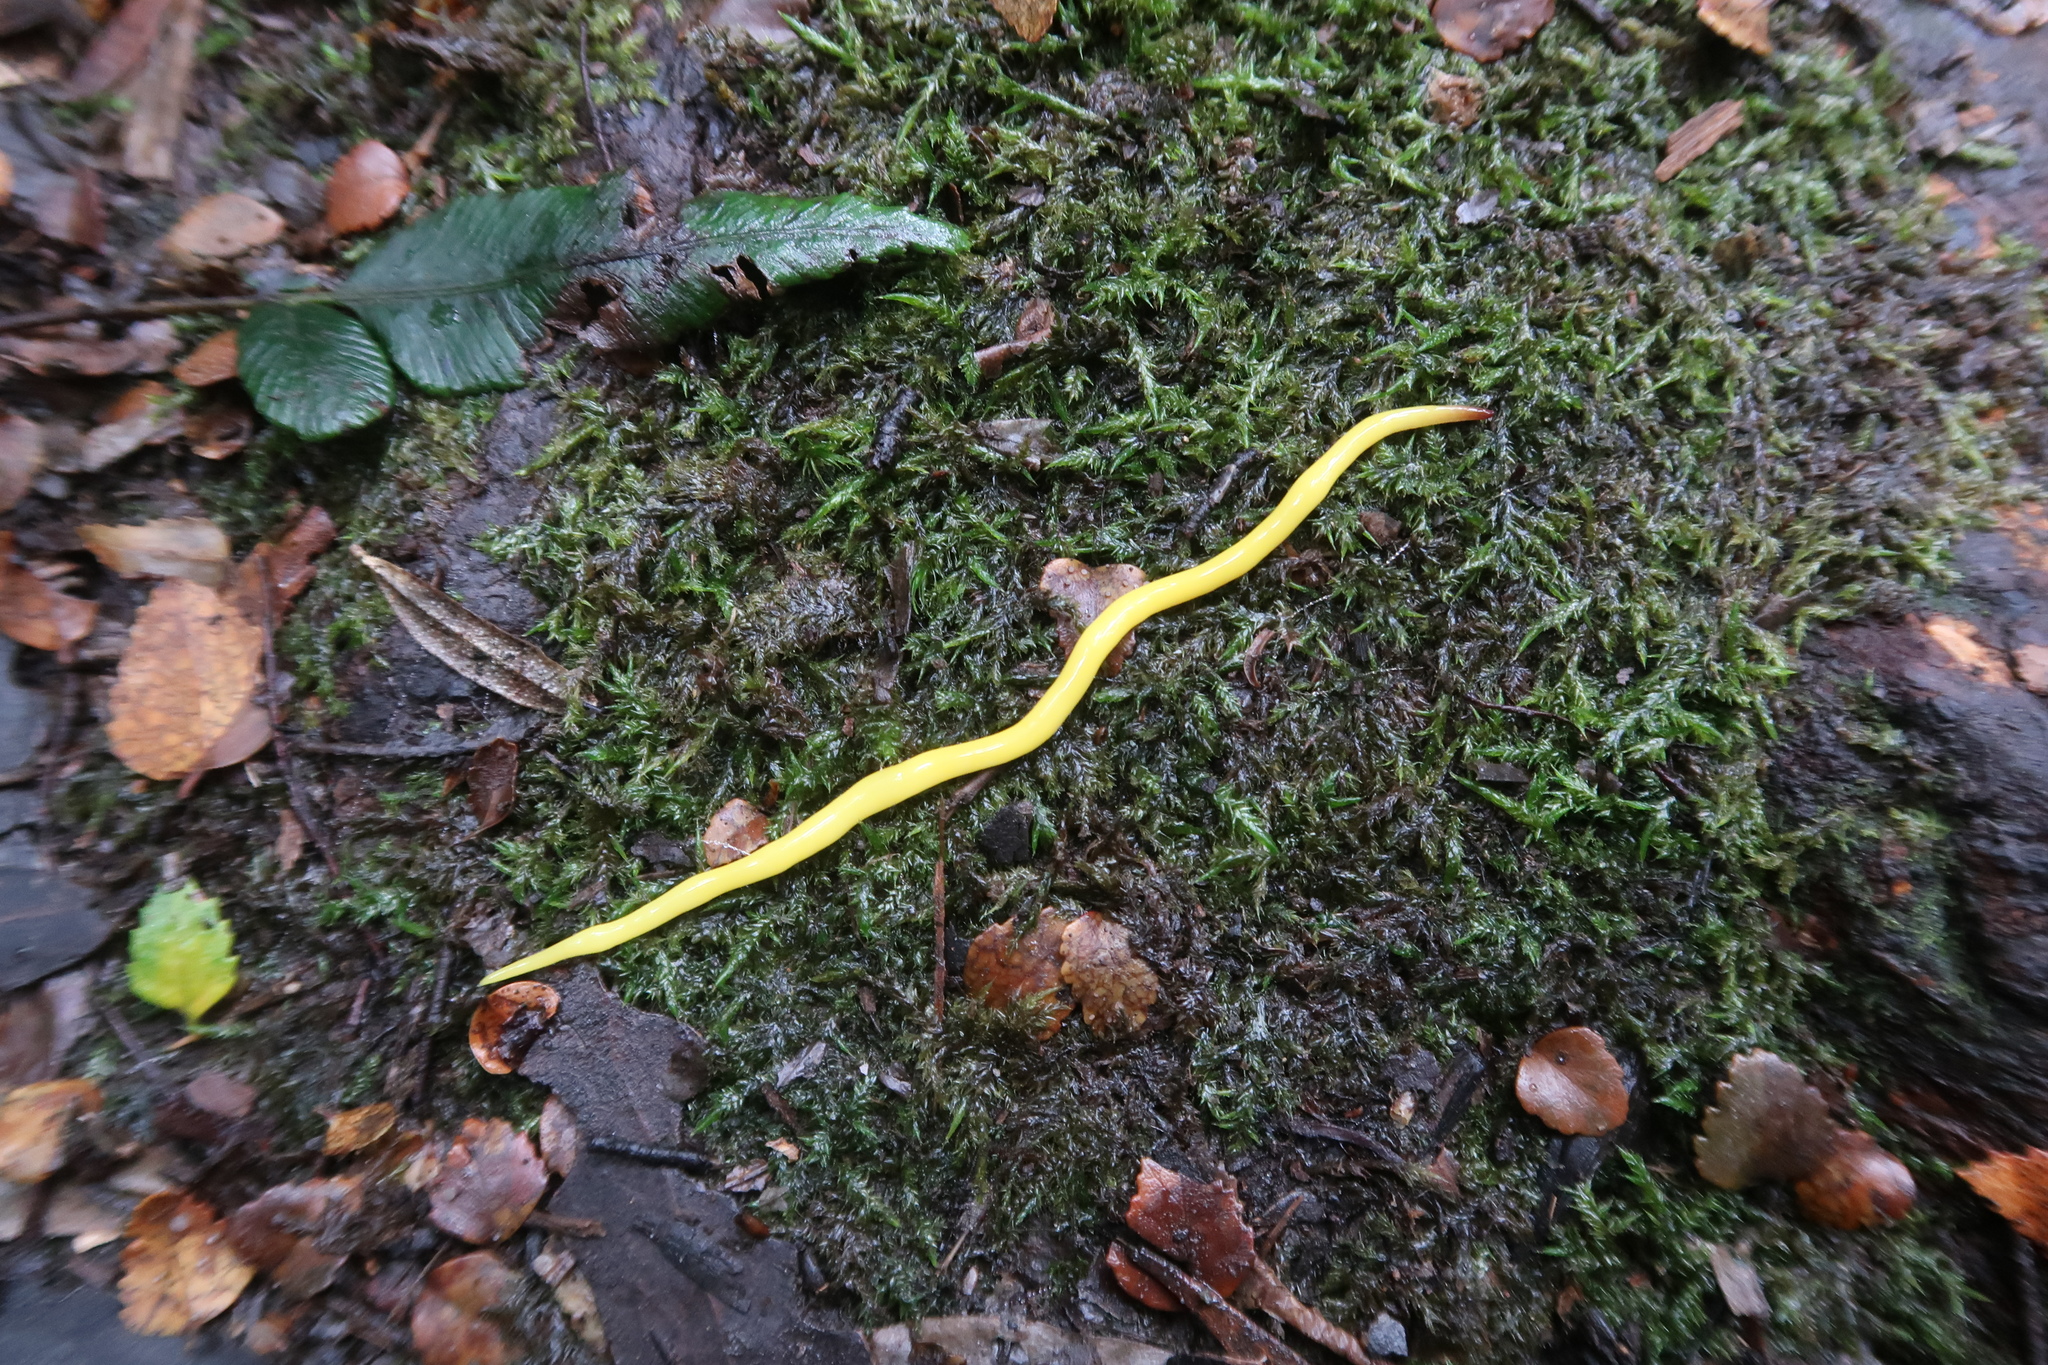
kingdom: Animalia
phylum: Platyhelminthes
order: Tricladida
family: Geoplanidae
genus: Fletchamia
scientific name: Fletchamia sugdeni
